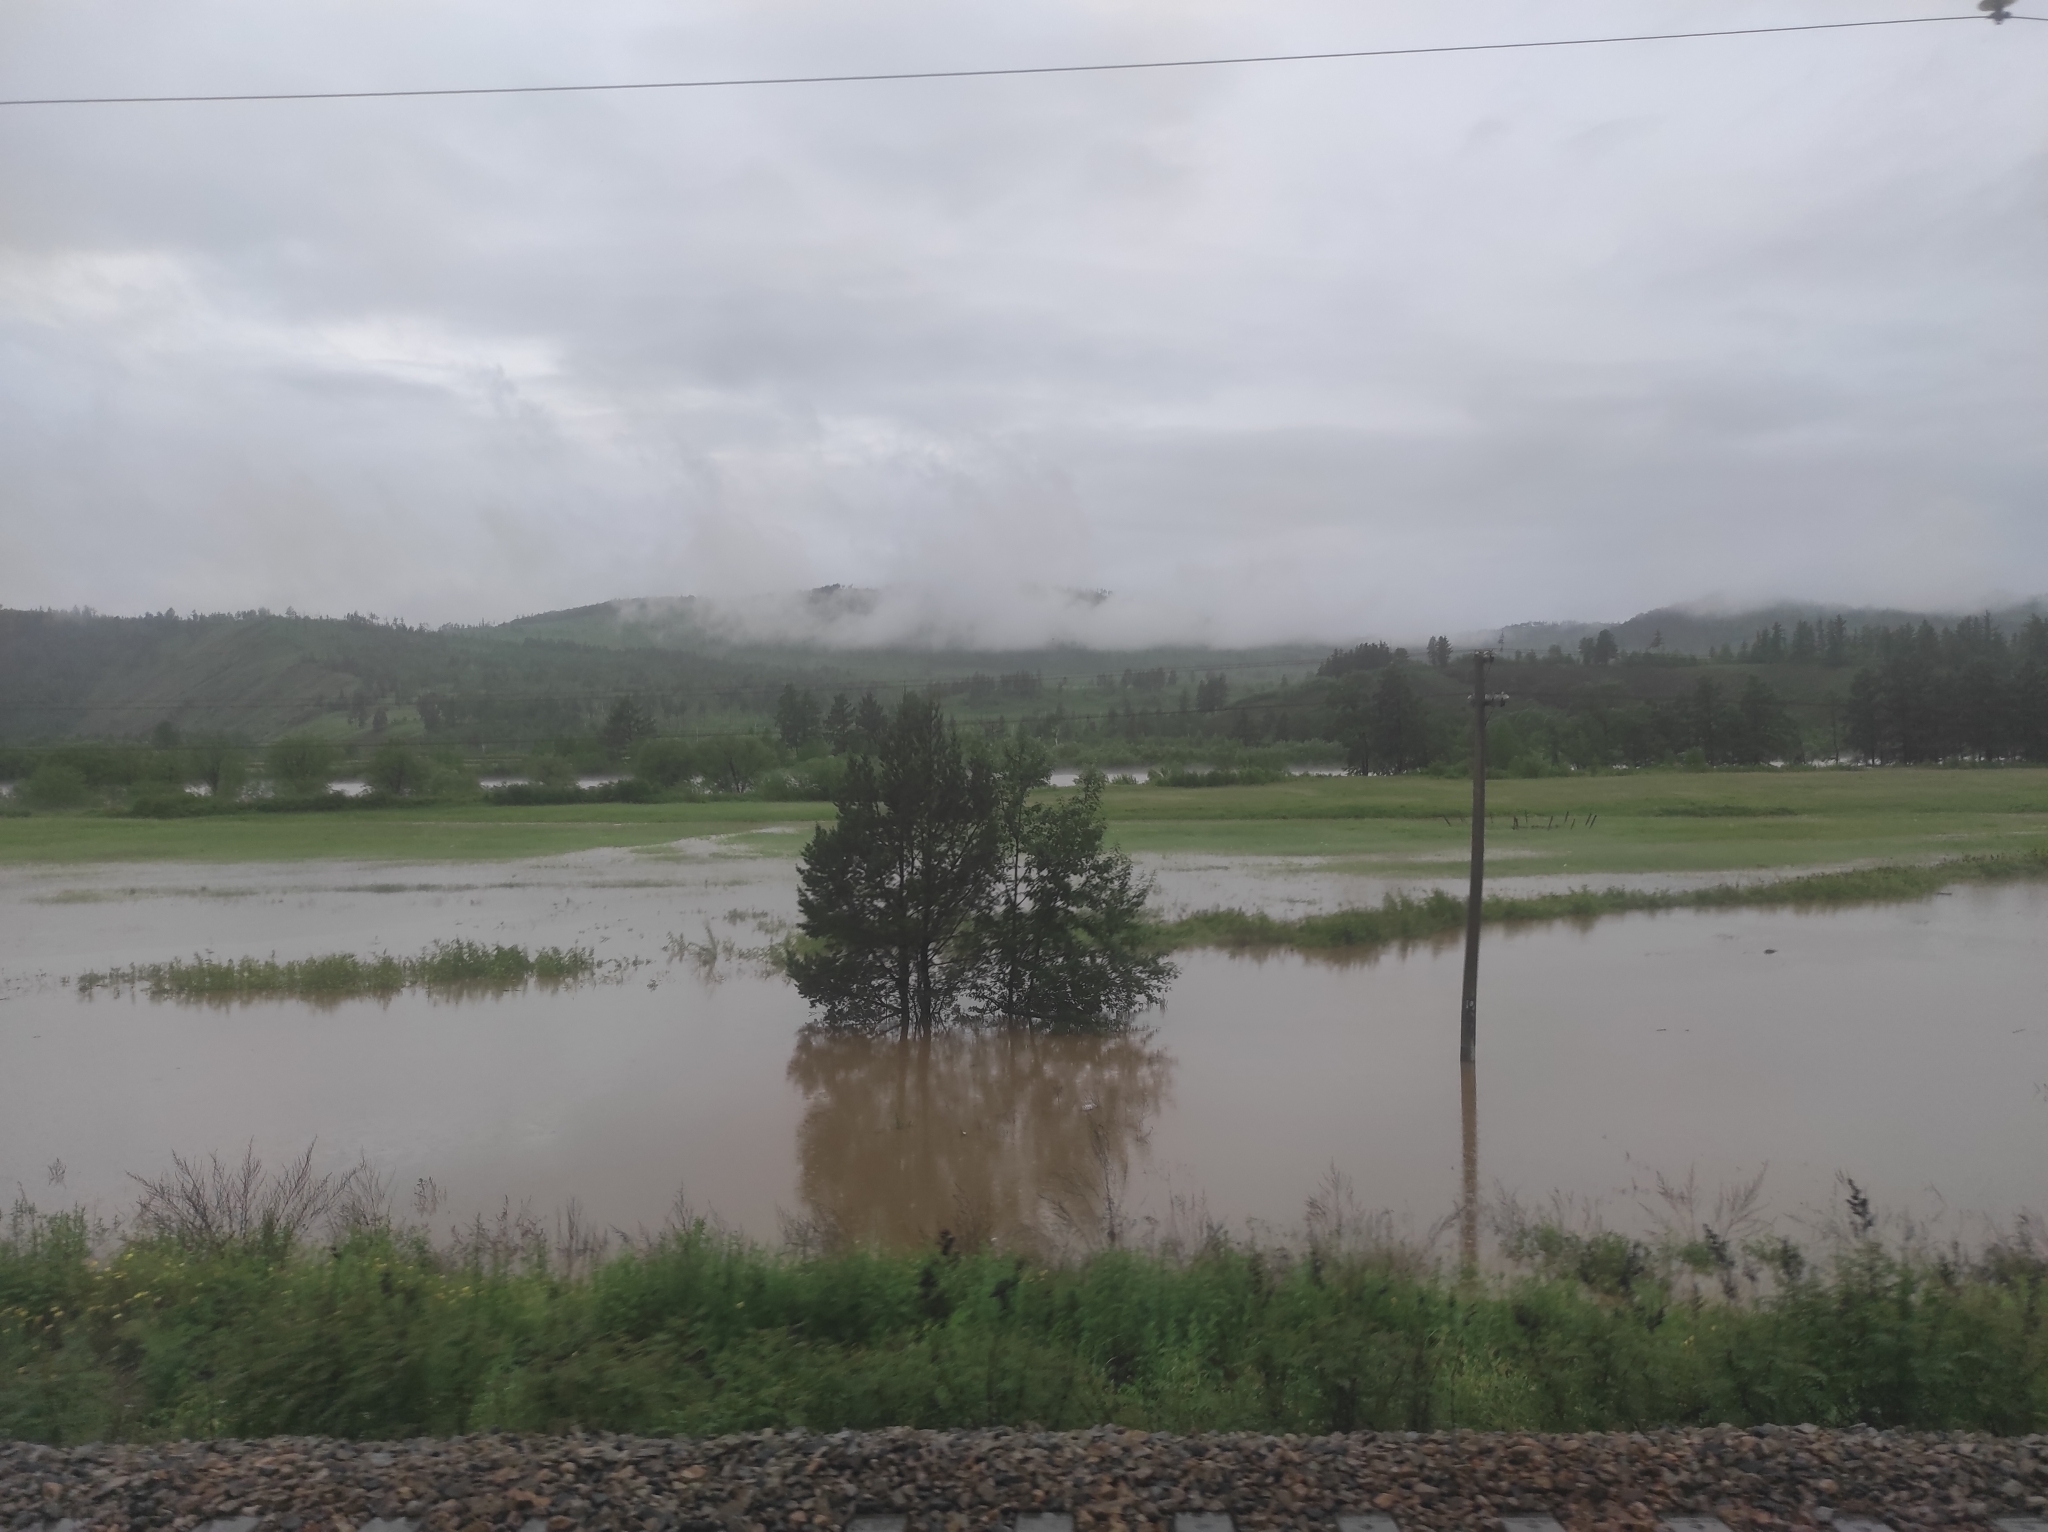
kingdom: Plantae
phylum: Tracheophyta
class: Pinopsida
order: Pinales
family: Pinaceae
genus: Pinus
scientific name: Pinus sylvestris
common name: Scots pine
